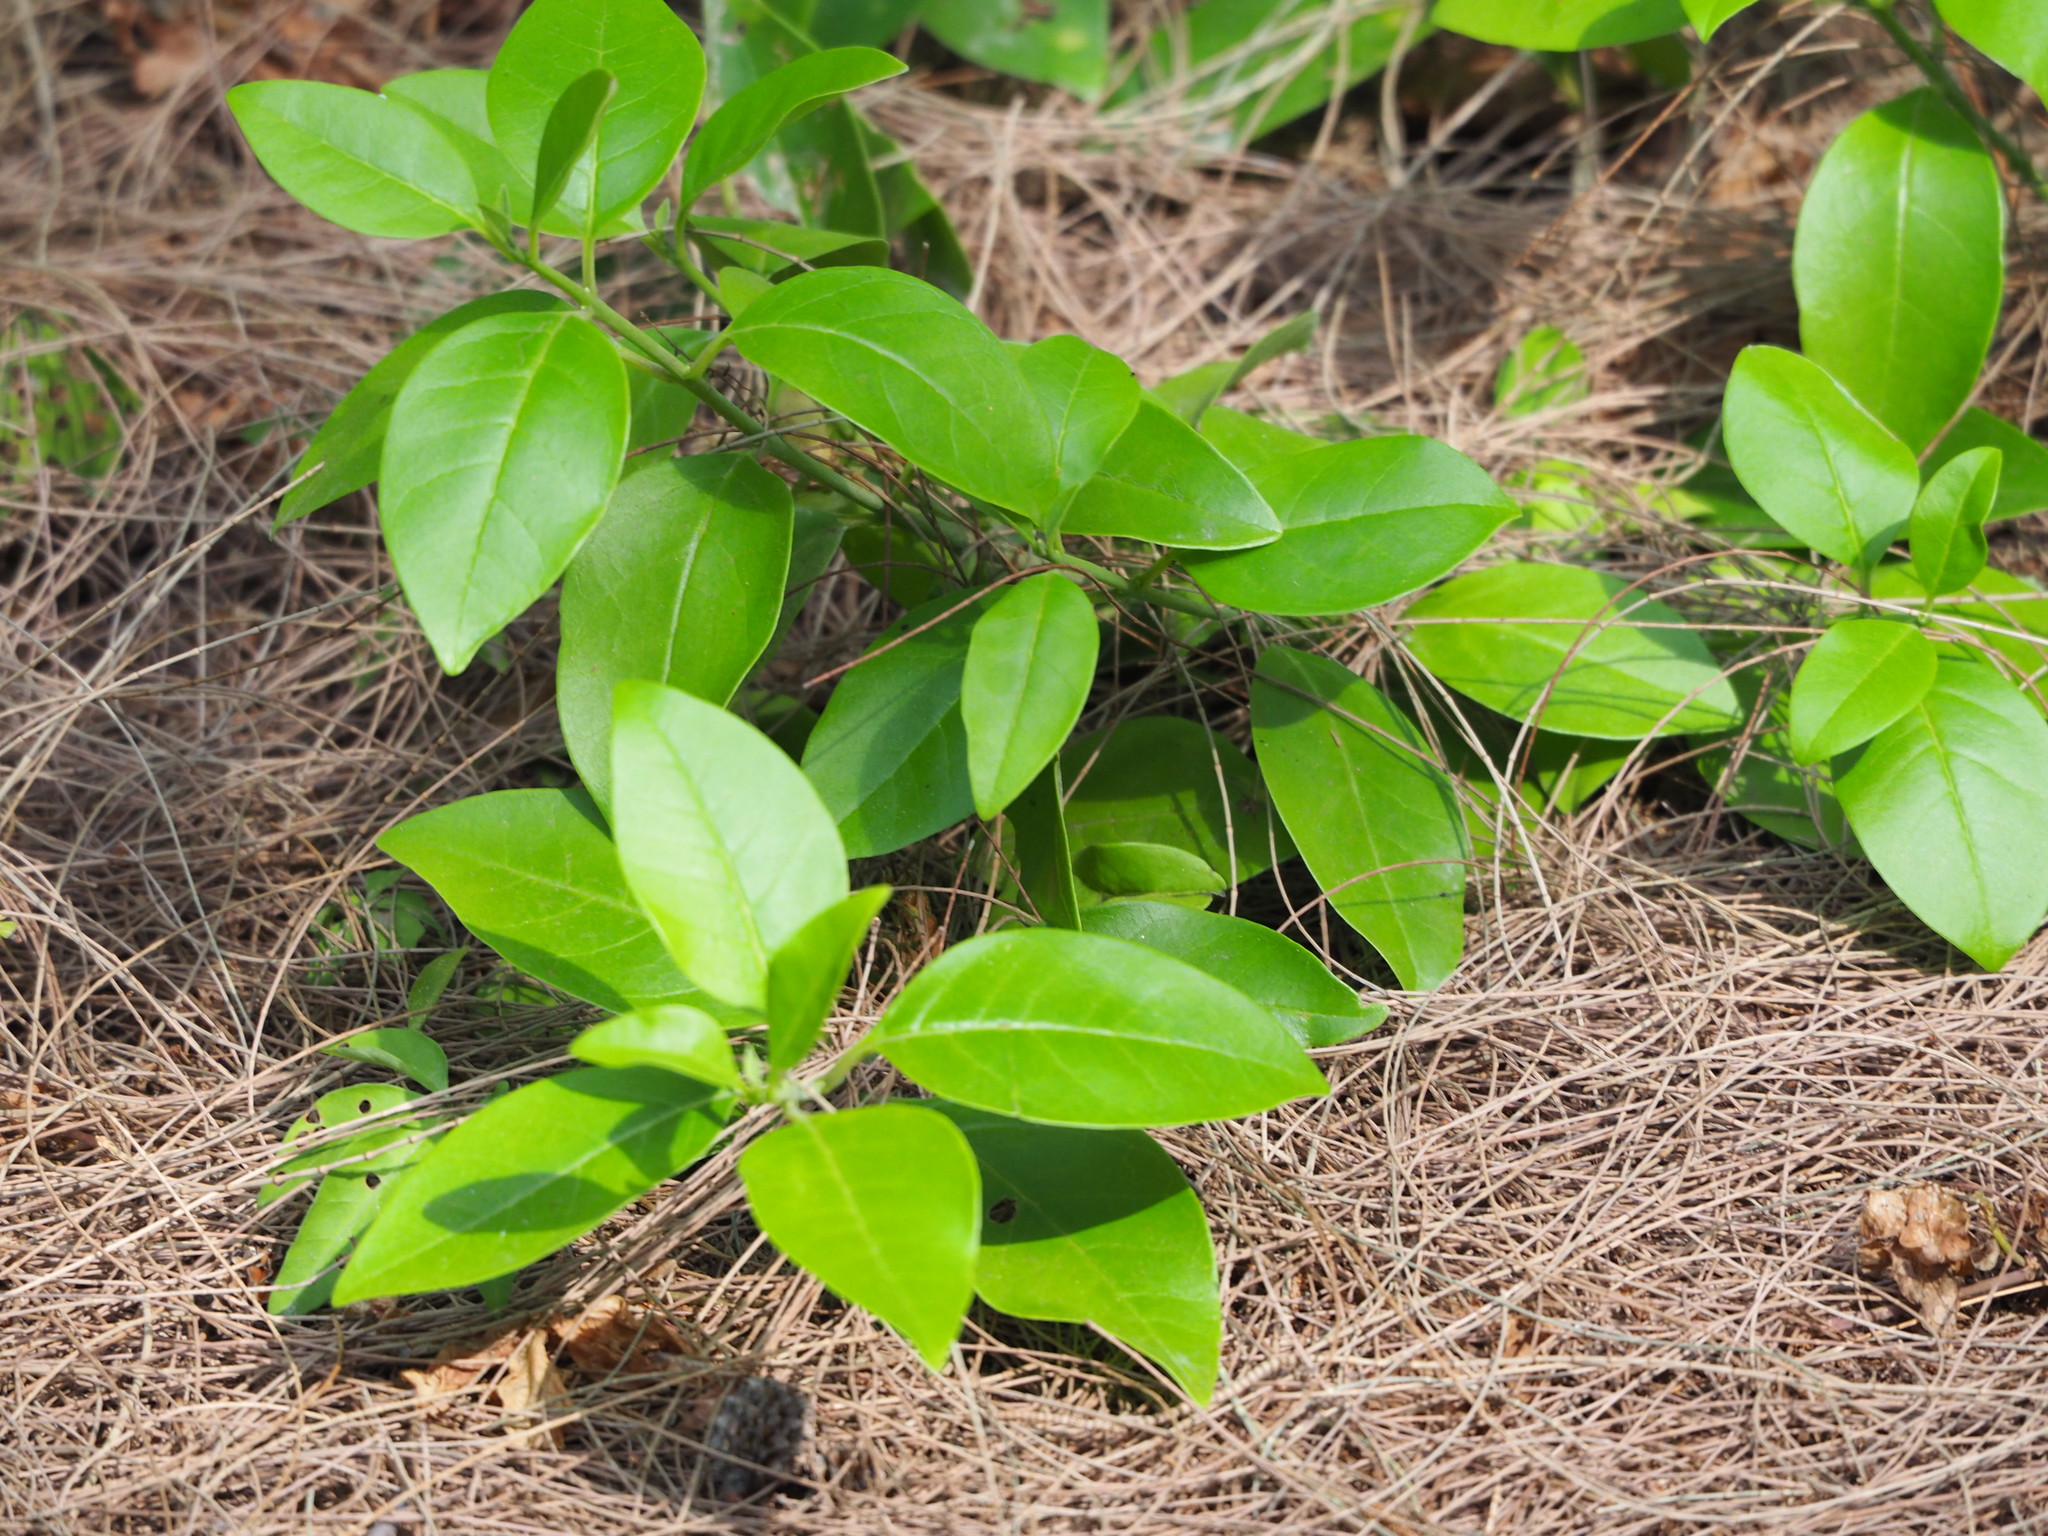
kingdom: Plantae
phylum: Tracheophyta
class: Magnoliopsida
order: Lamiales
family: Lamiaceae
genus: Volkameria
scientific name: Volkameria inermis
